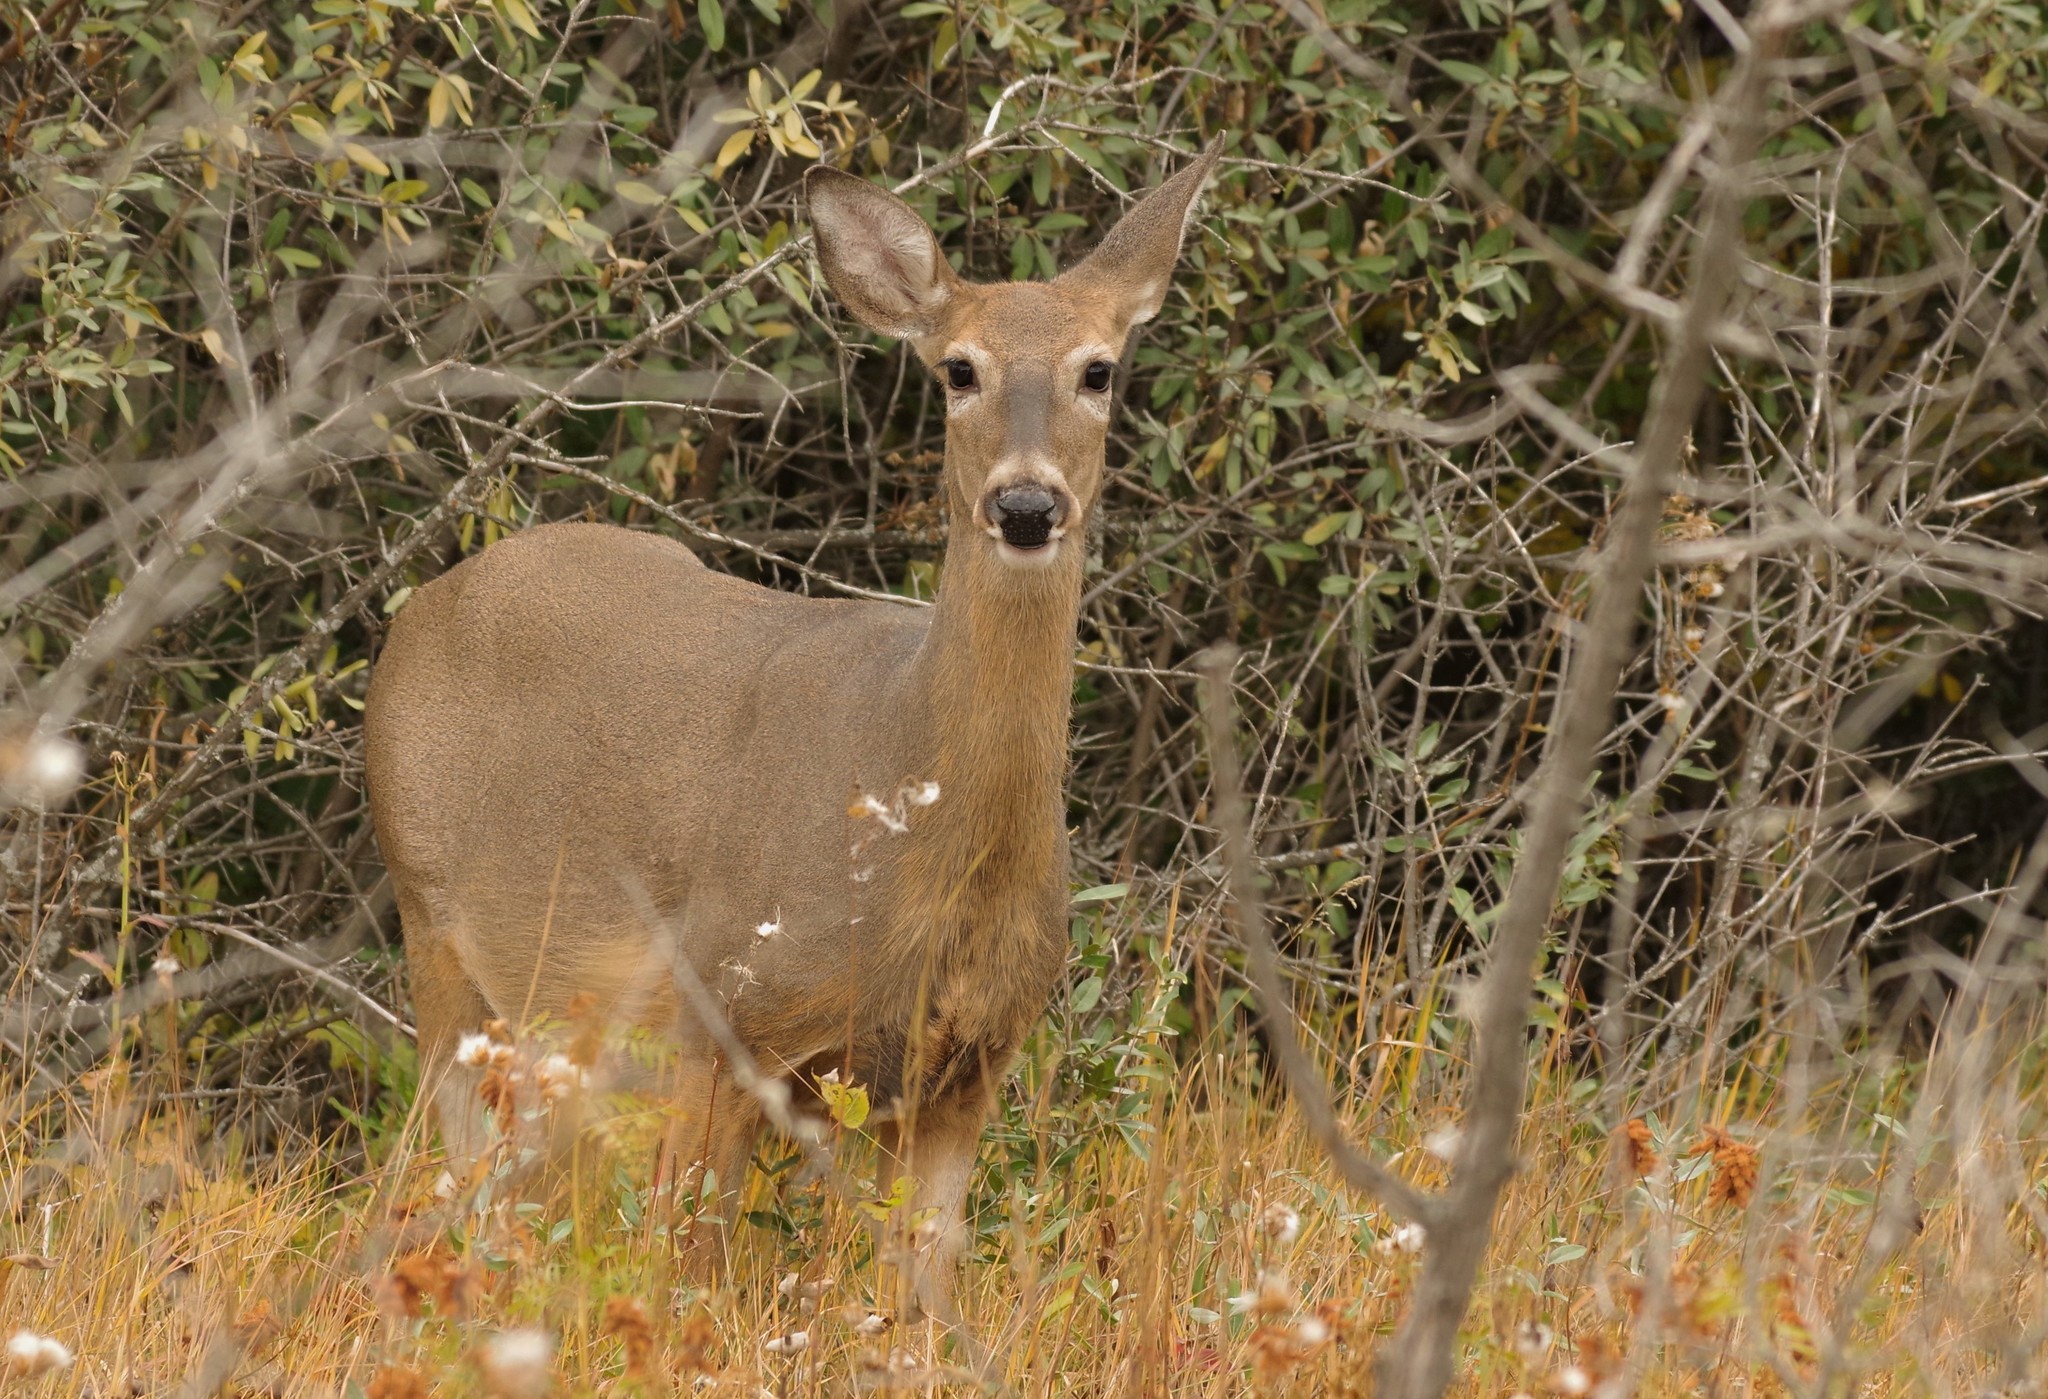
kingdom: Animalia
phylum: Chordata
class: Mammalia
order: Artiodactyla
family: Cervidae
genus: Odocoileus
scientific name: Odocoileus virginianus
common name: White-tailed deer
